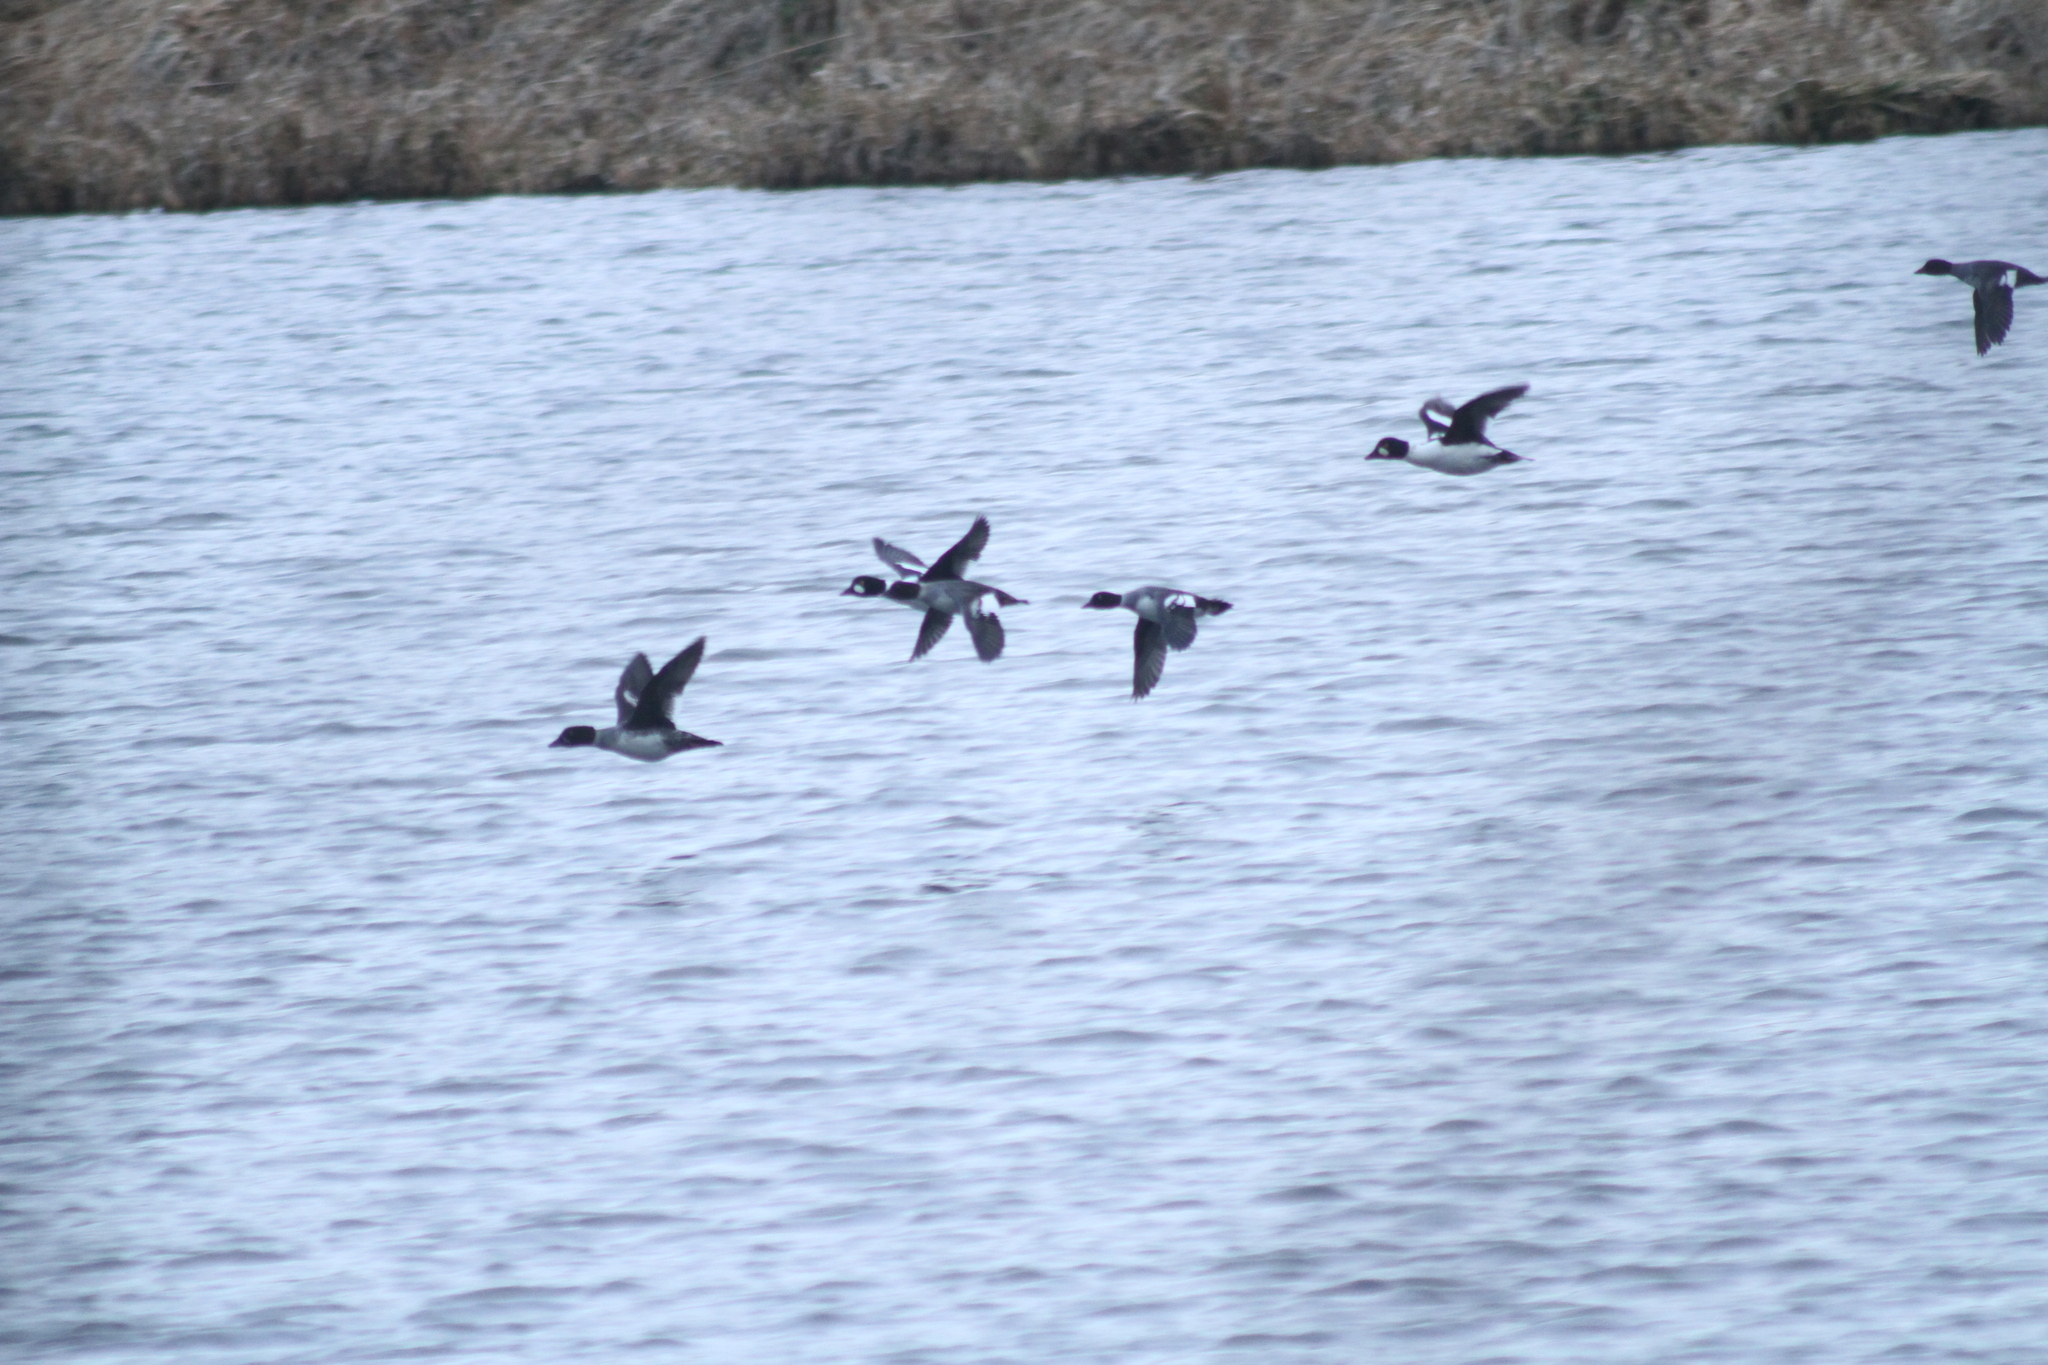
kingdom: Animalia
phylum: Chordata
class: Aves
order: Anseriformes
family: Anatidae
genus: Bucephala
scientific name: Bucephala clangula
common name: Common goldeneye
